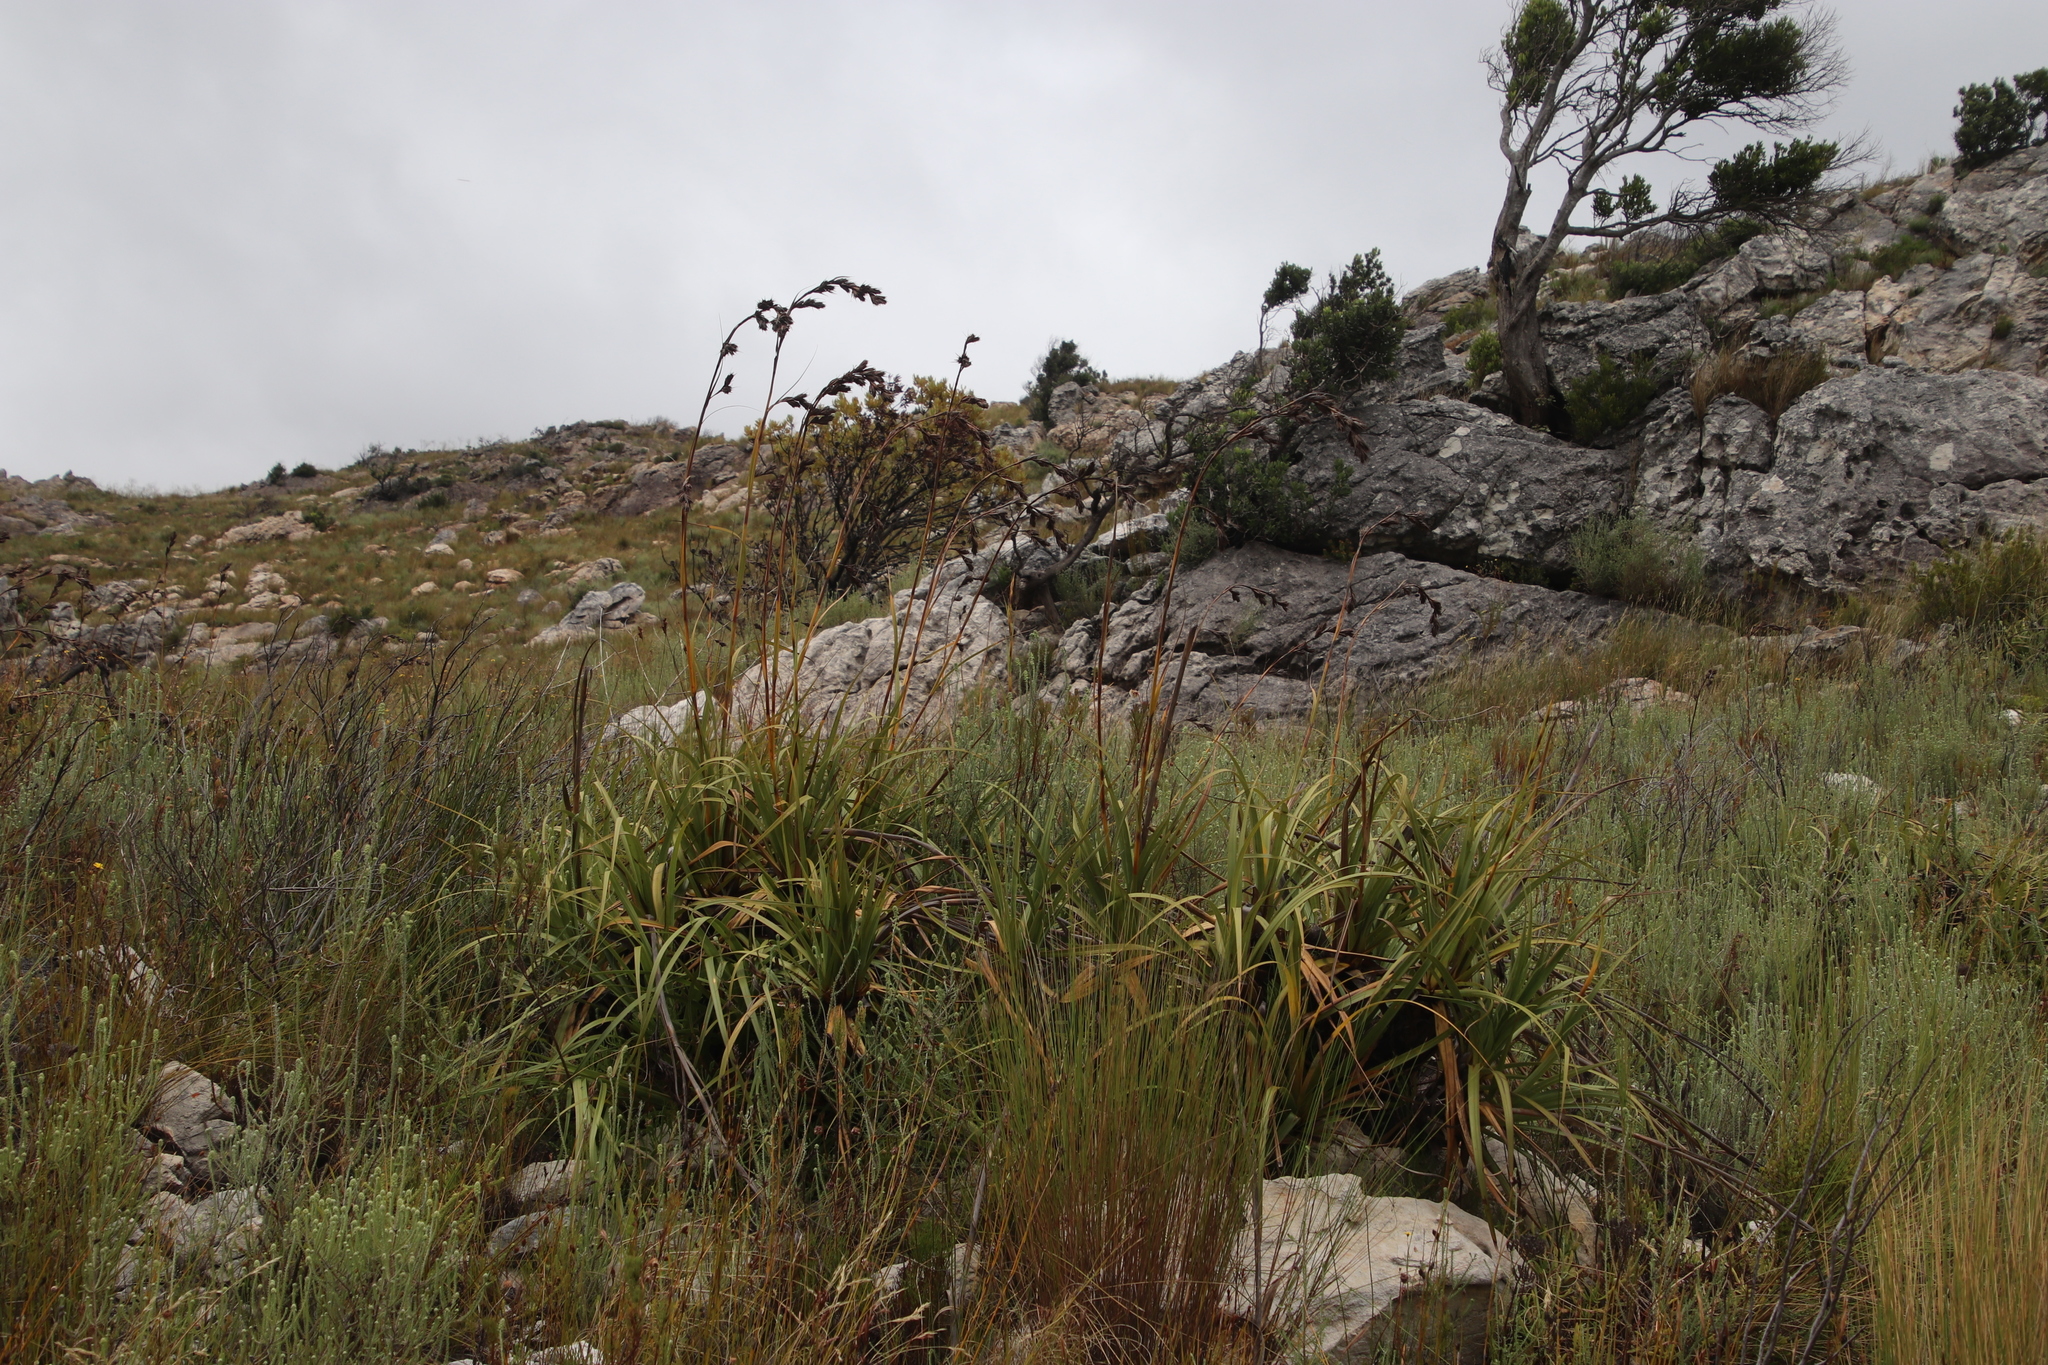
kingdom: Plantae
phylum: Tracheophyta
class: Liliopsida
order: Poales
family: Cyperaceae
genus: Tetraria
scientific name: Tetraria thermalis
